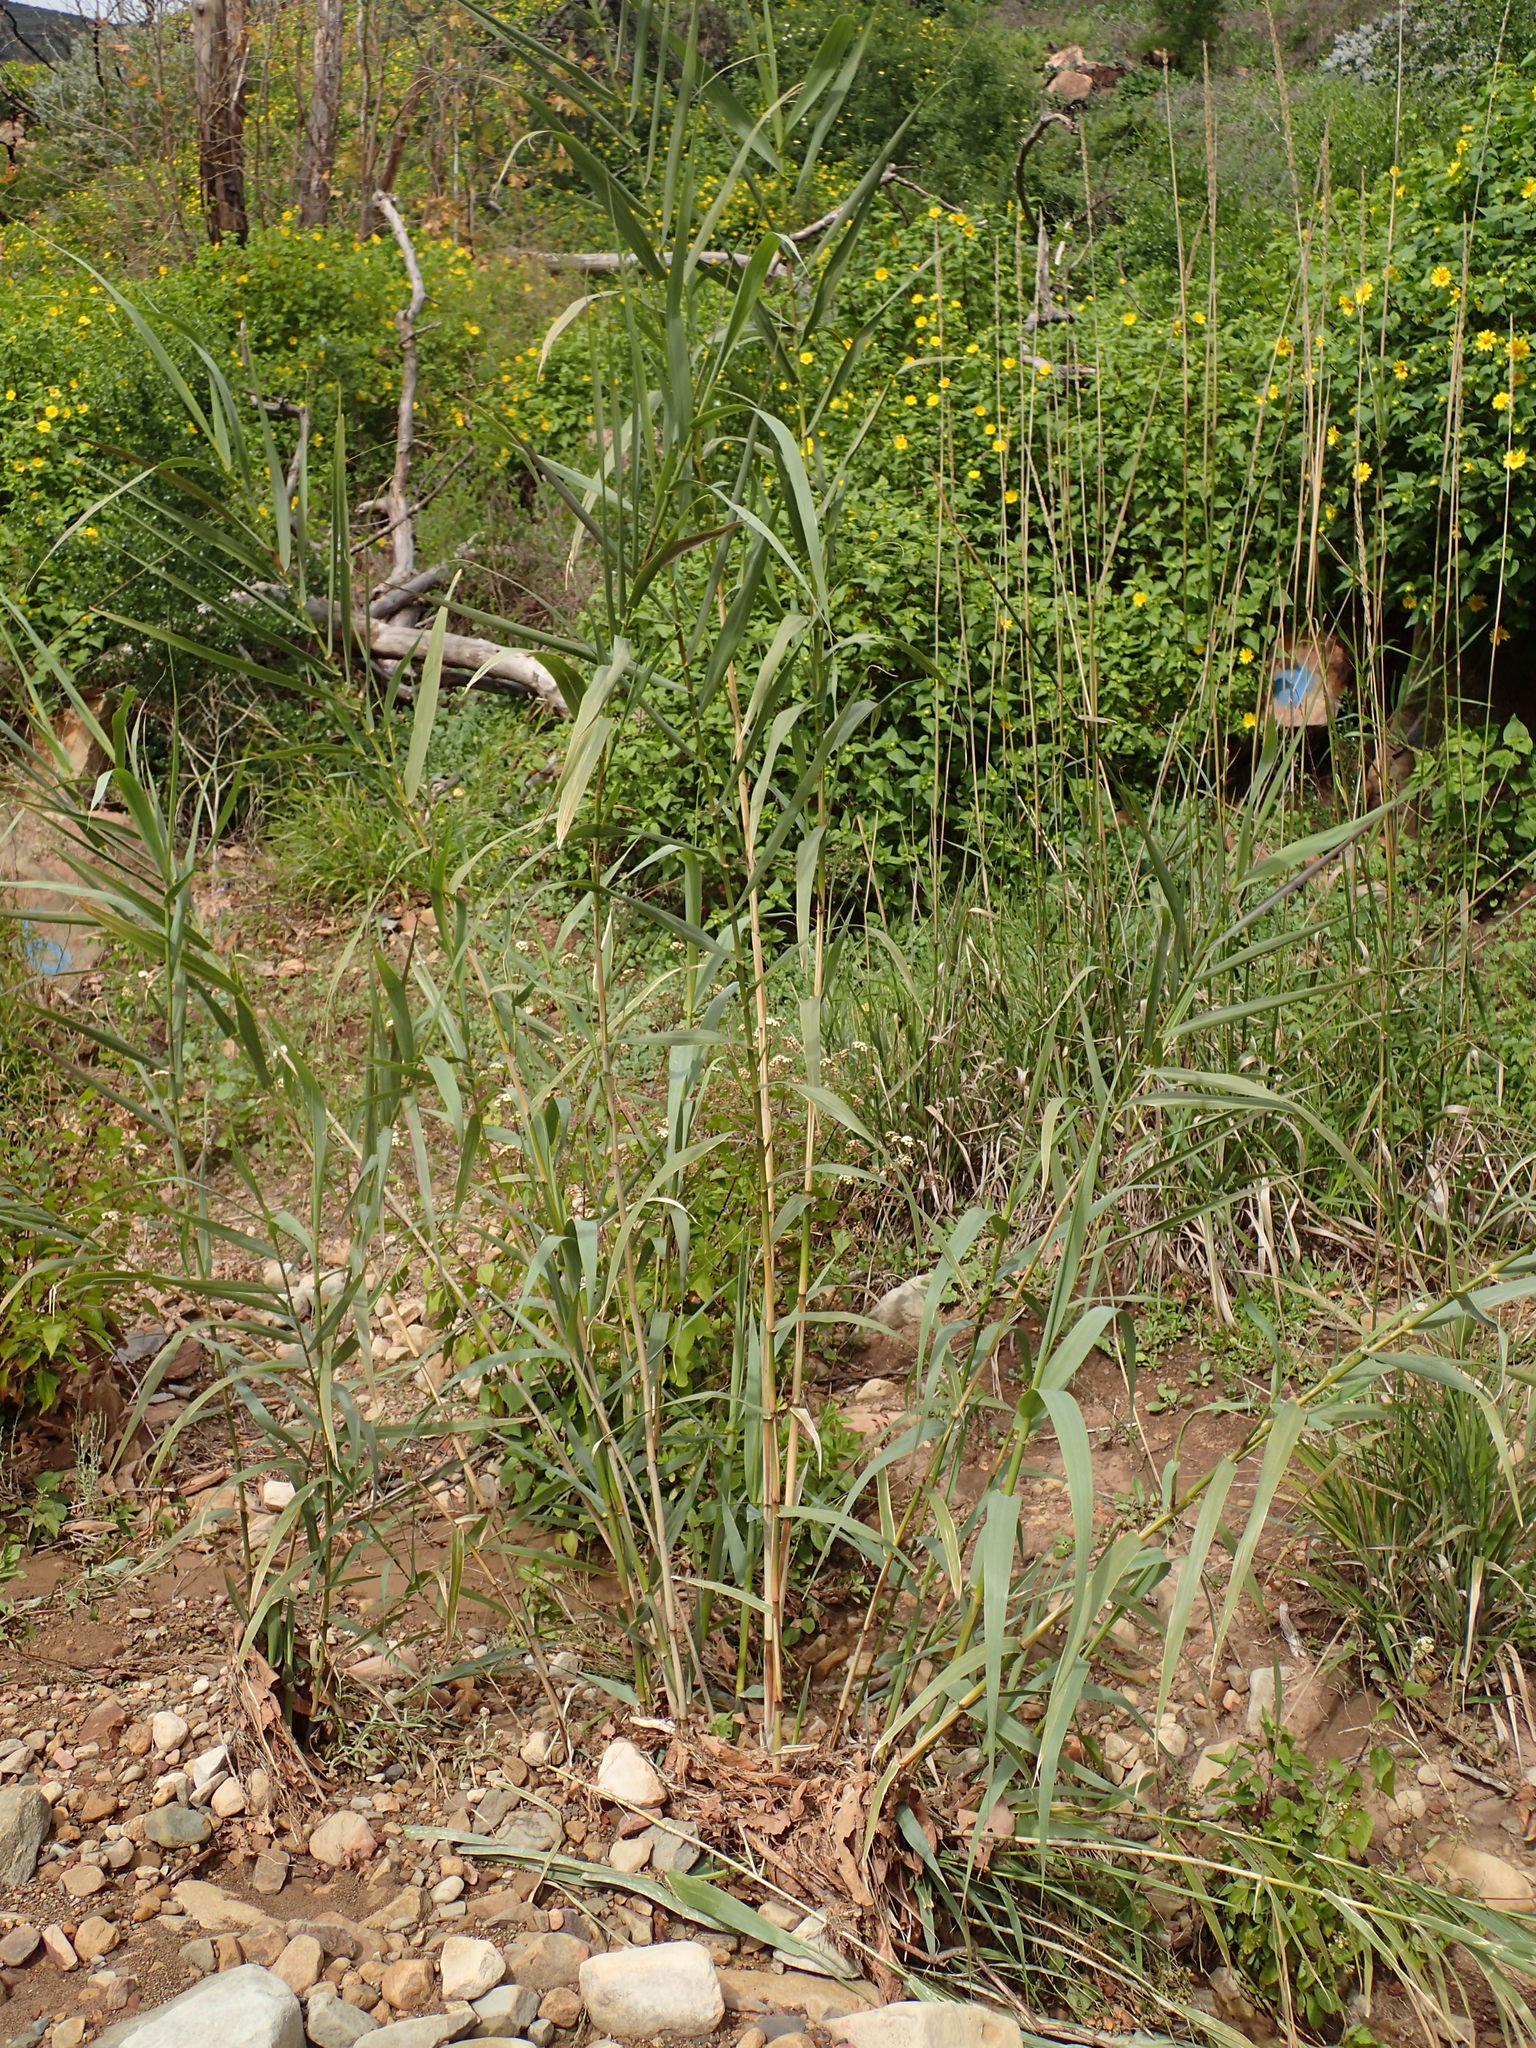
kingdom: Plantae
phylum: Tracheophyta
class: Liliopsida
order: Poales
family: Poaceae
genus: Arundo
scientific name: Arundo donax
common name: Giant reed
